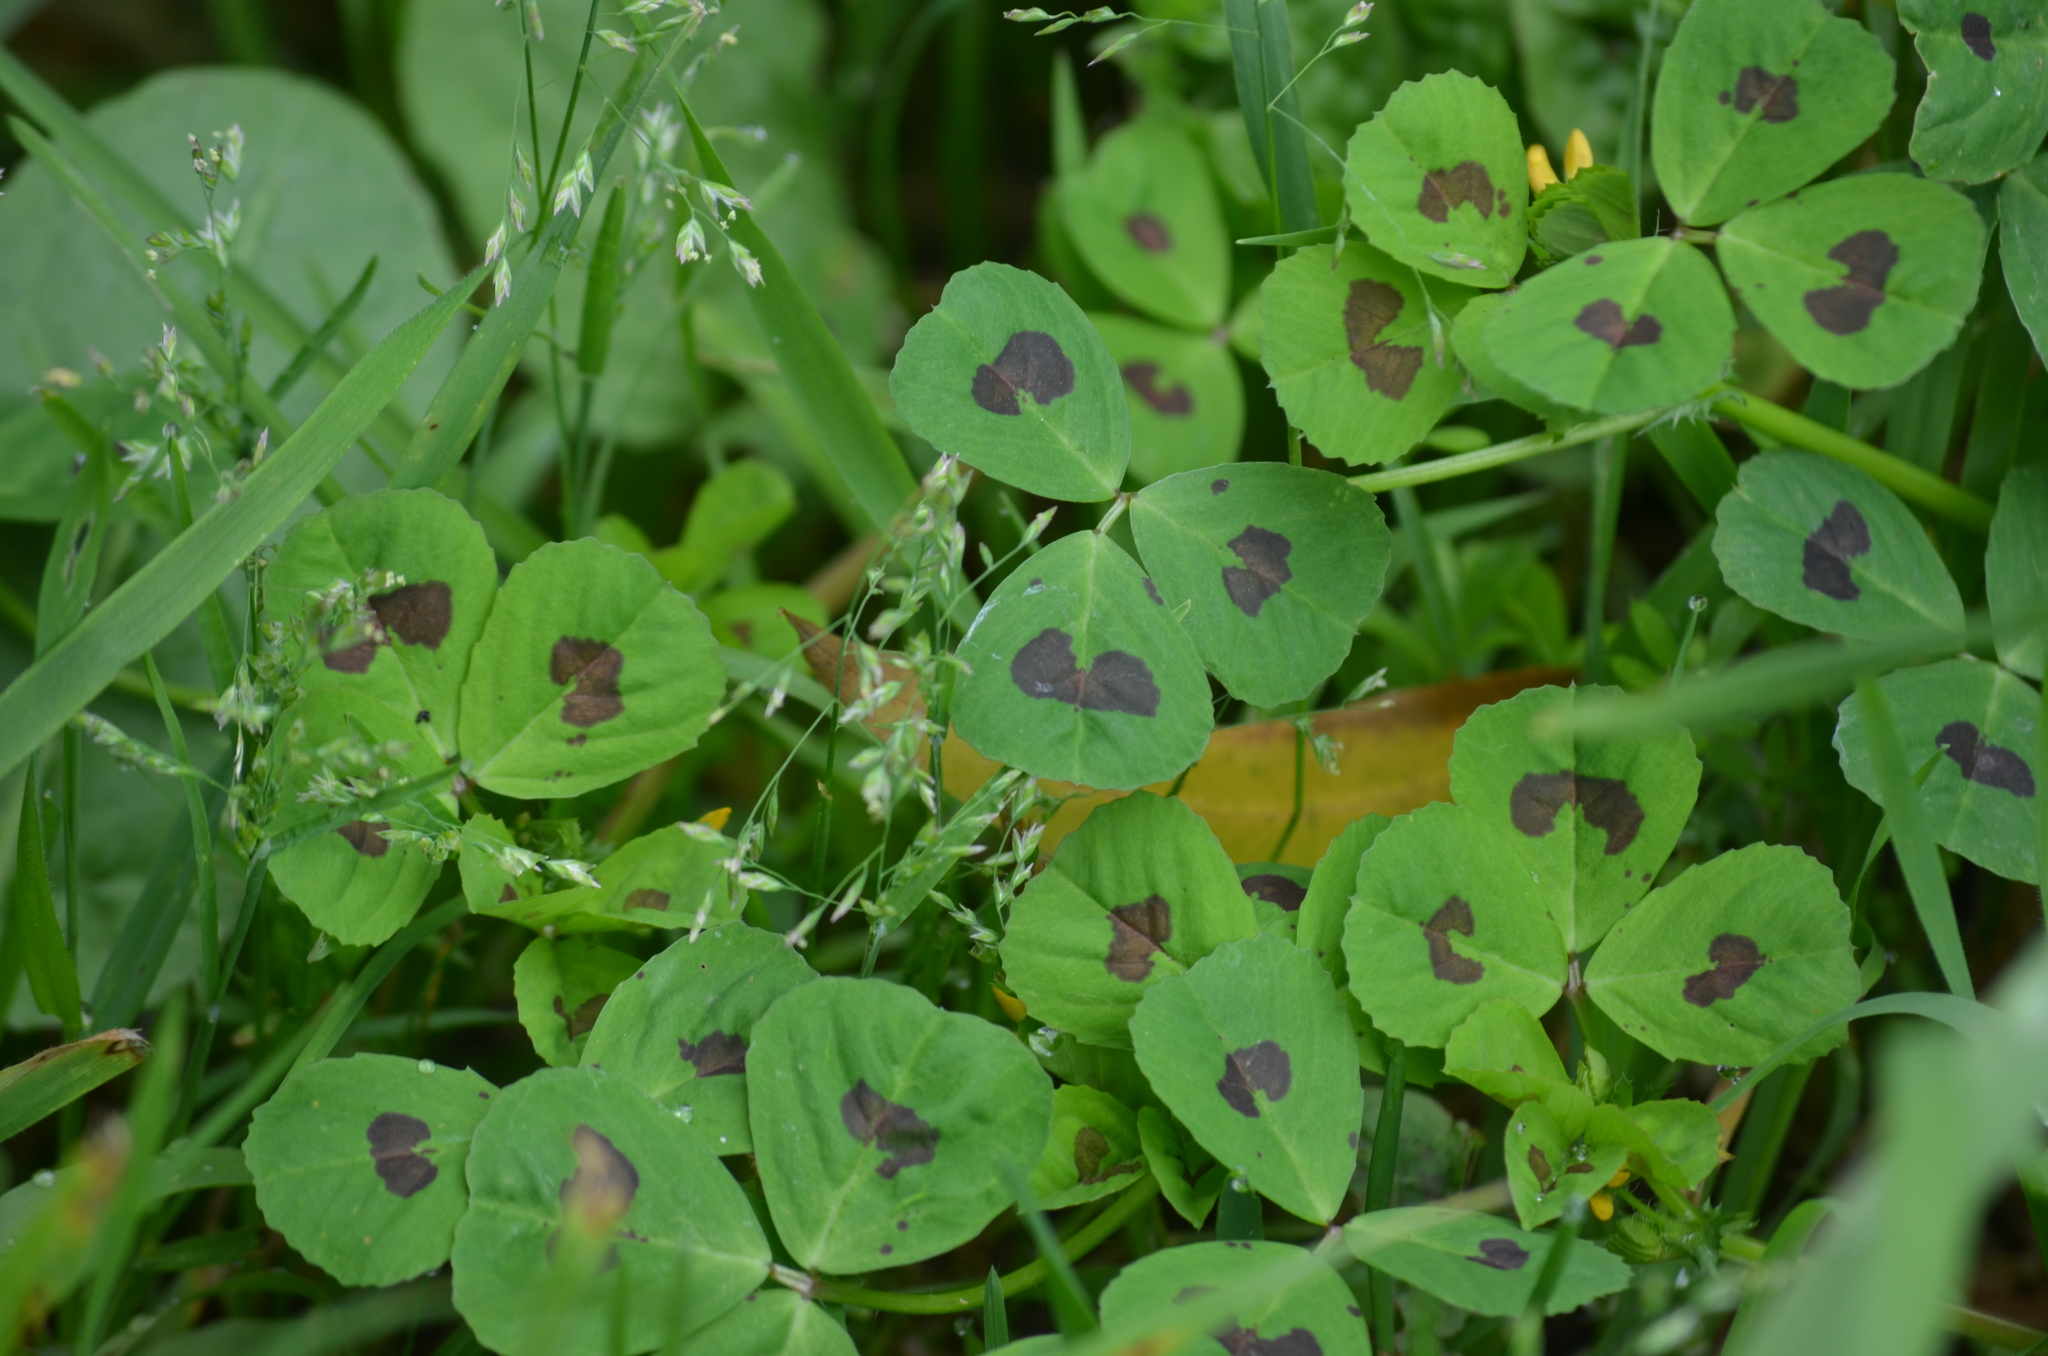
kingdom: Plantae
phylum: Tracheophyta
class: Magnoliopsida
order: Fabales
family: Fabaceae
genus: Medicago
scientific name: Medicago arabica
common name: Spotted medick
